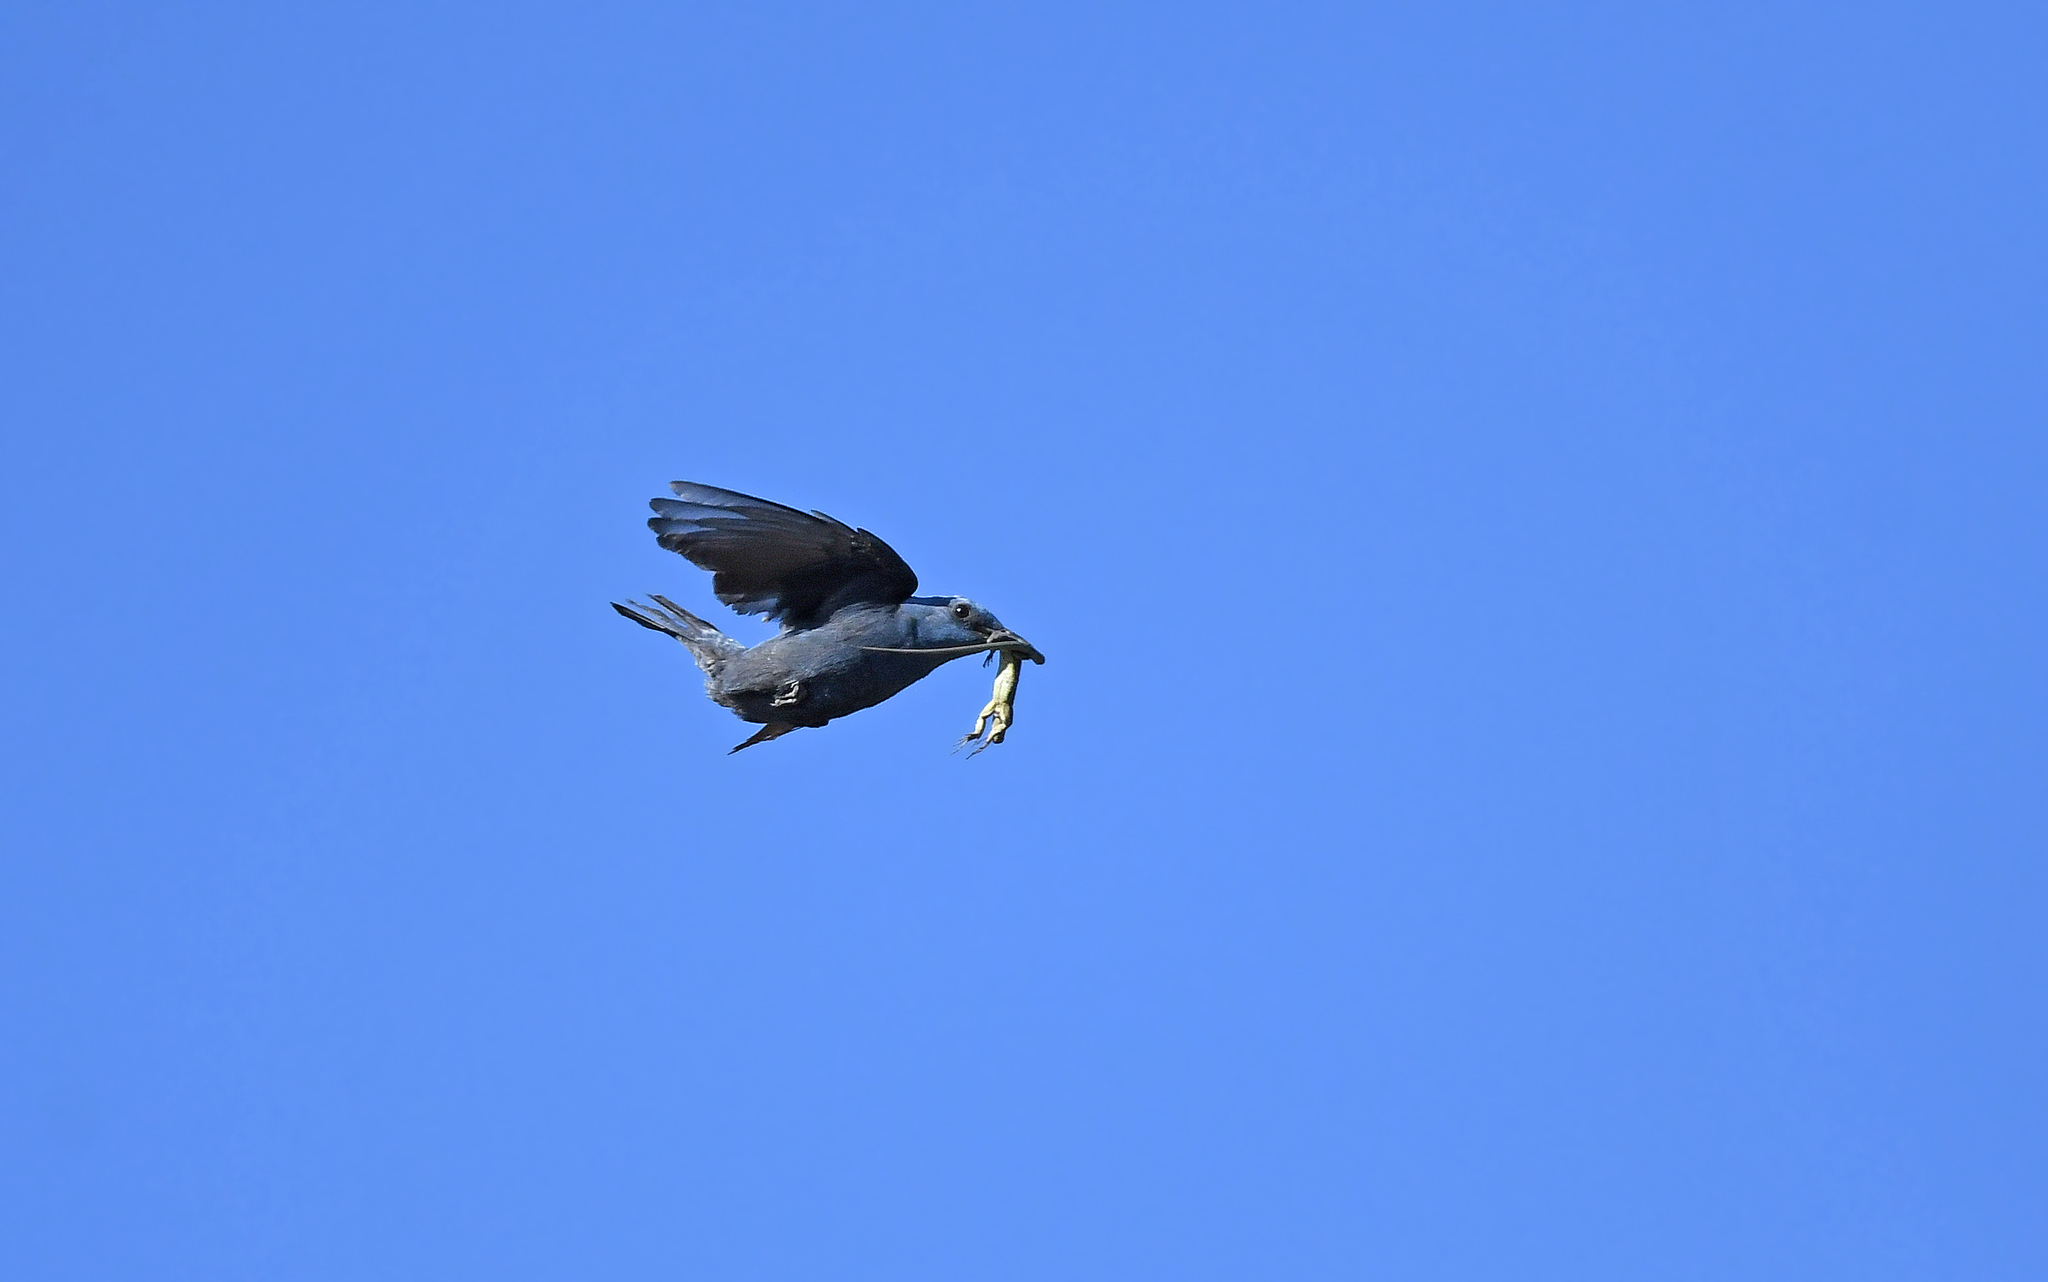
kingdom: Animalia
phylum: Chordata
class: Aves
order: Passeriformes
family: Muscicapidae
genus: Monticola
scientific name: Monticola solitarius
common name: Blue rock thrush
